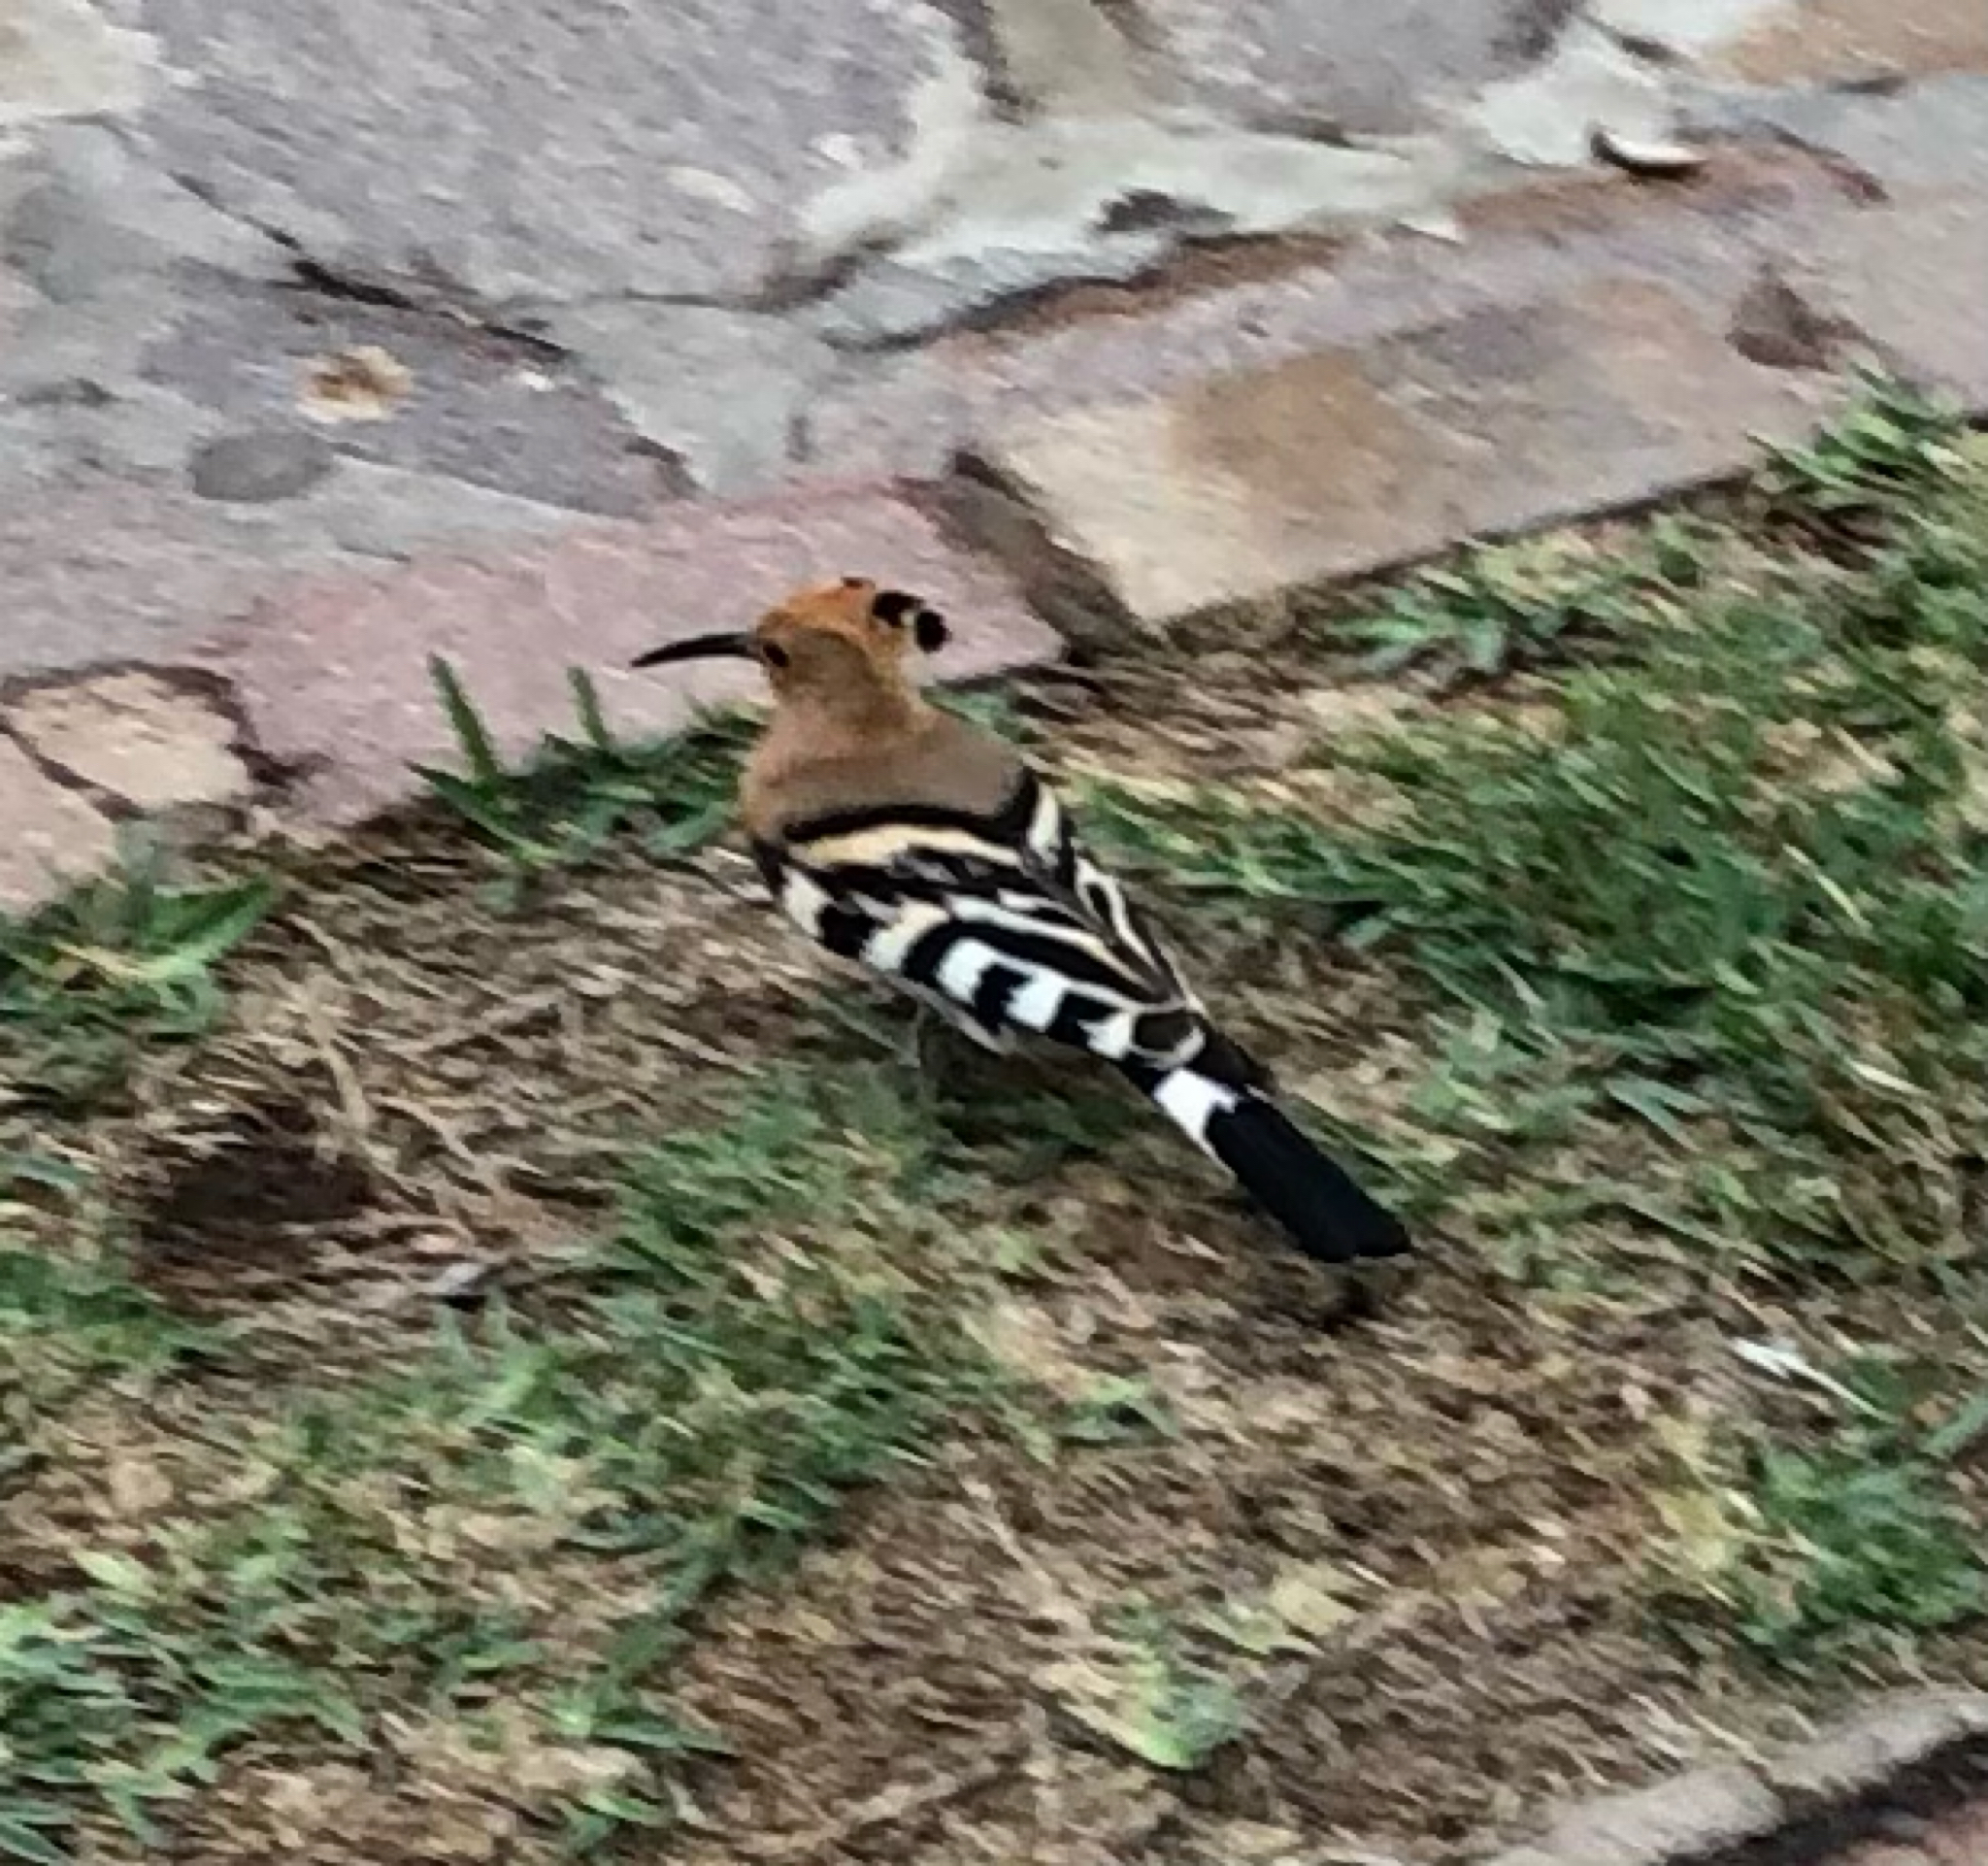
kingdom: Animalia
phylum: Chordata
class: Aves
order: Bucerotiformes
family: Upupidae
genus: Upupa
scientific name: Upupa epops
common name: Eurasian hoopoe
